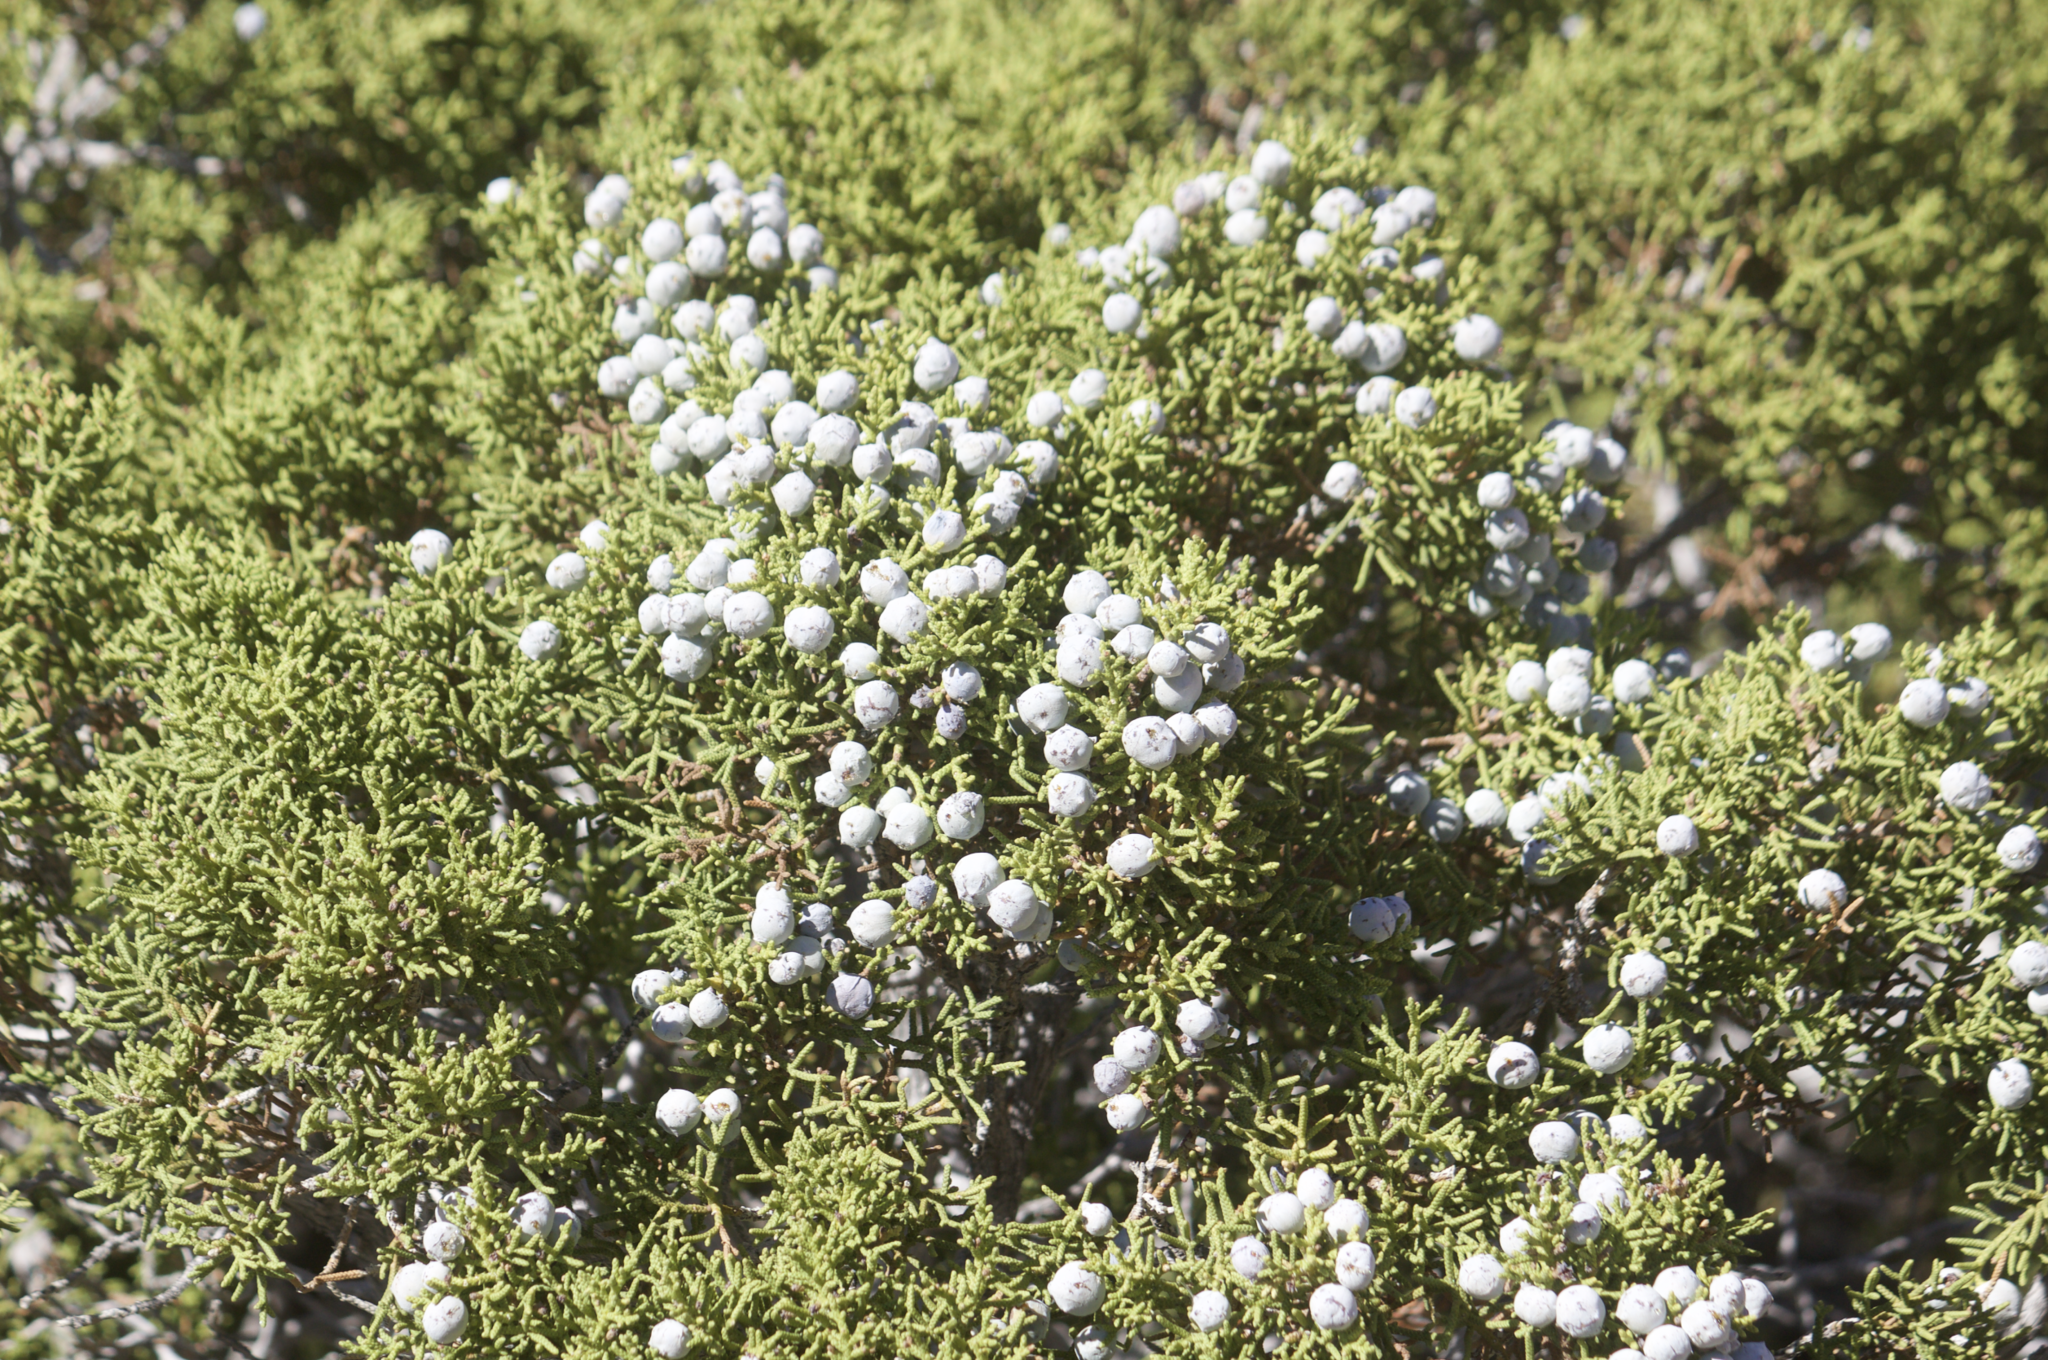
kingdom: Plantae
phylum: Tracheophyta
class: Pinopsida
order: Pinales
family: Cupressaceae
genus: Juniperus
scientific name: Juniperus californica
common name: California juniper
